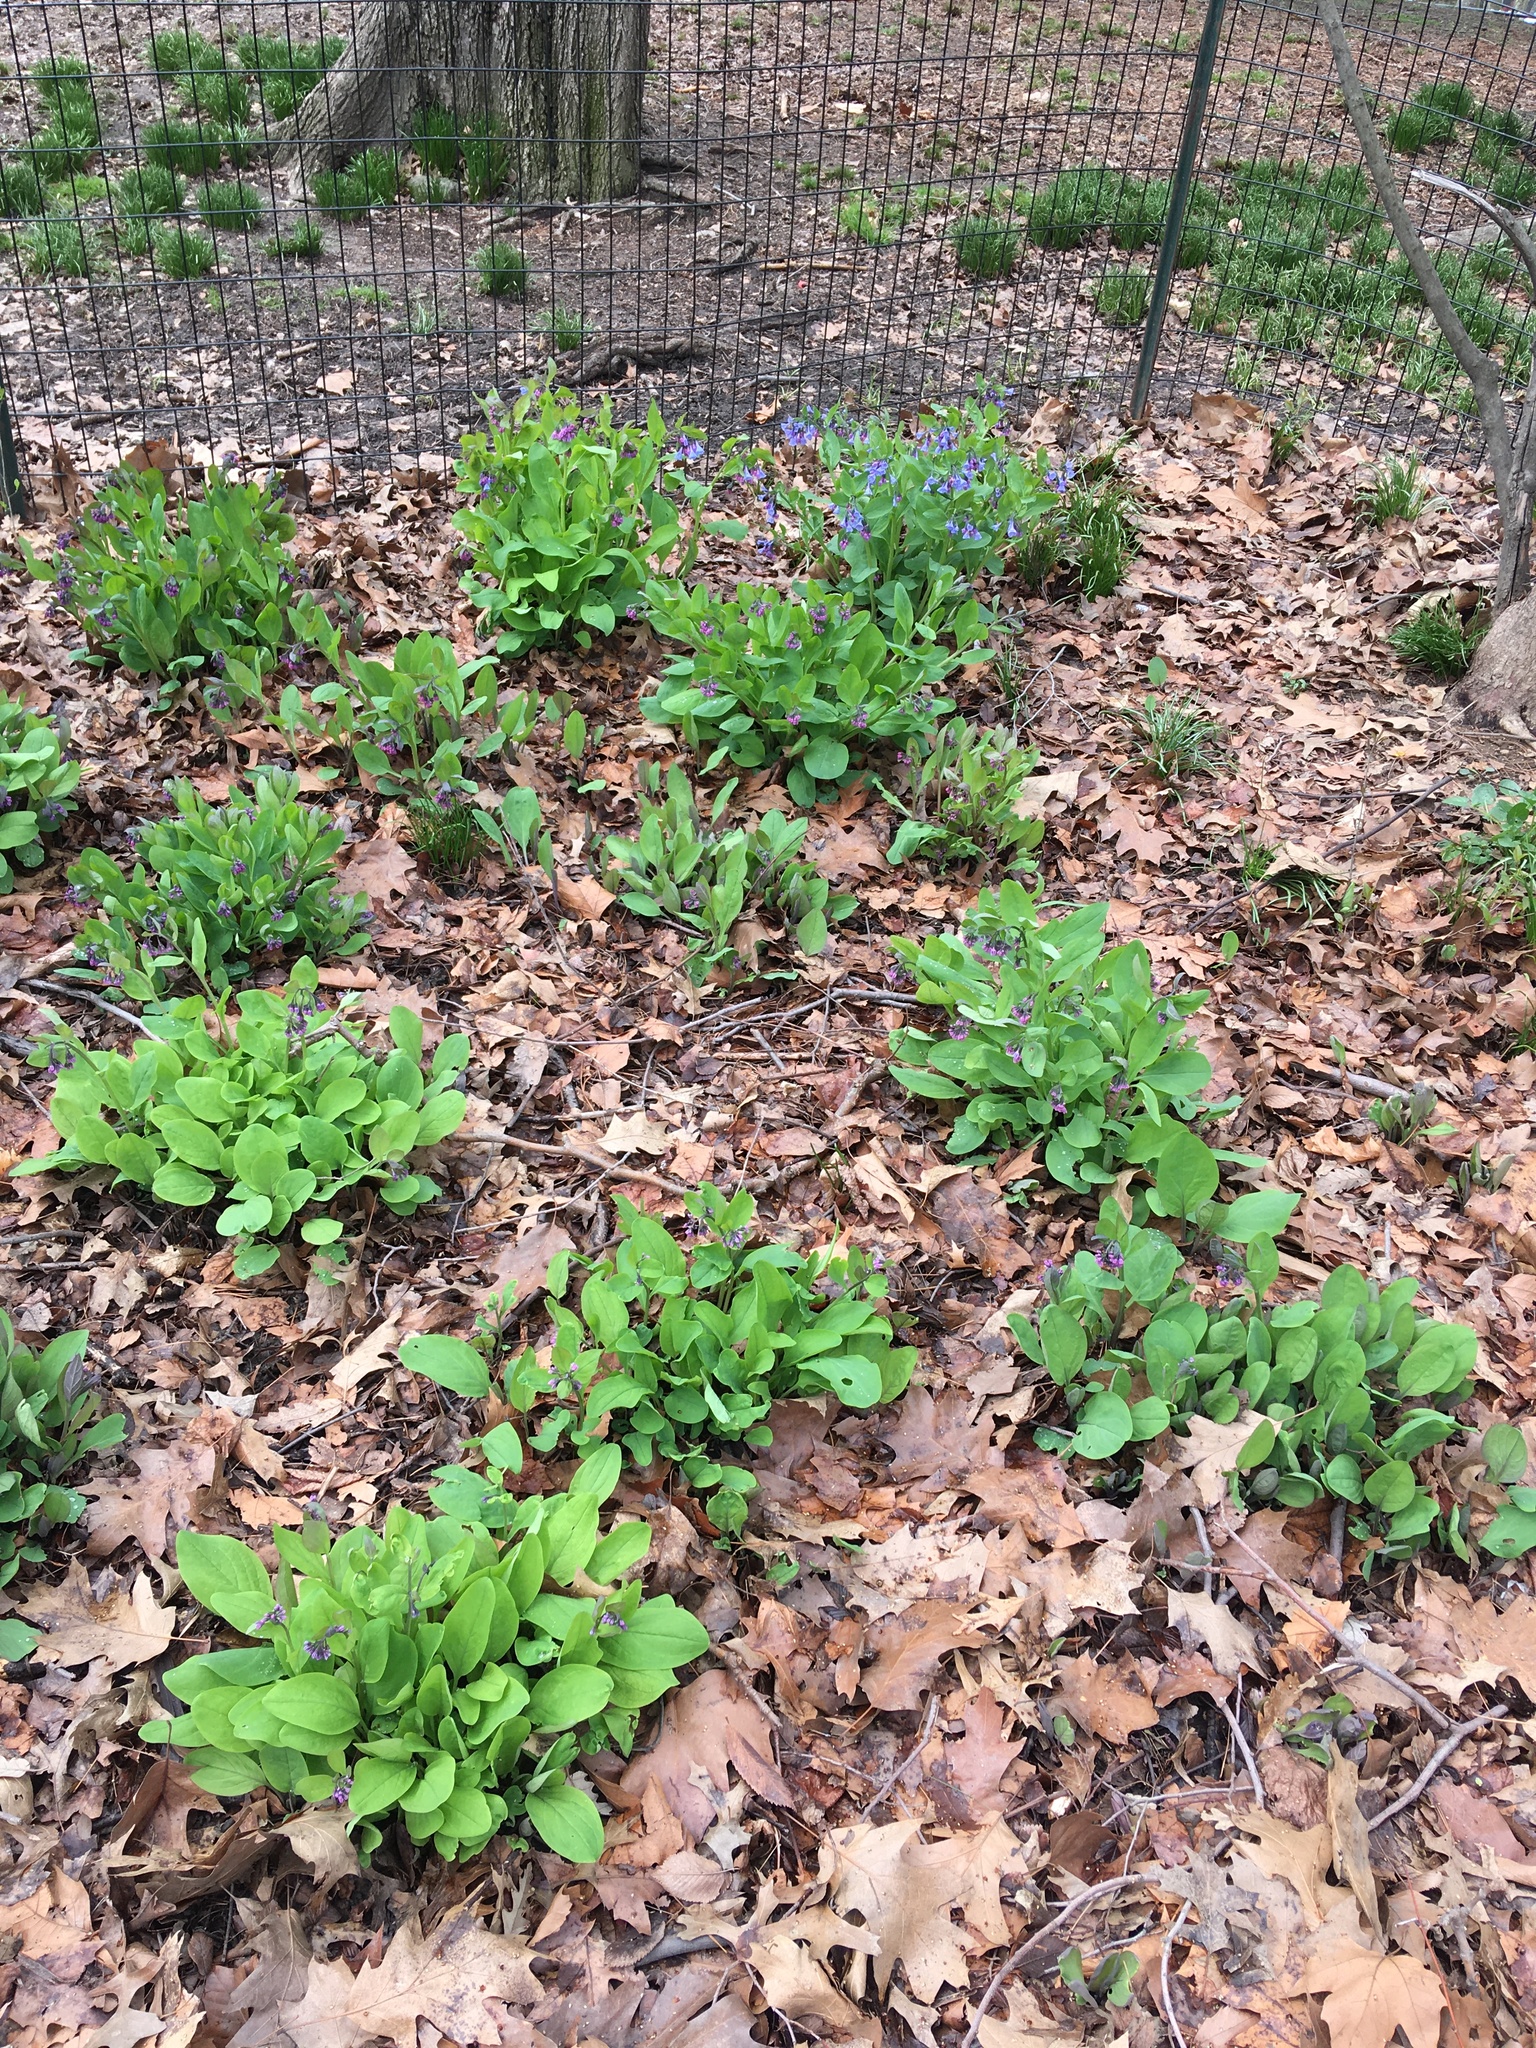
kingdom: Plantae
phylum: Tracheophyta
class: Magnoliopsida
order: Boraginales
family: Boraginaceae
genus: Mertensia
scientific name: Mertensia virginica
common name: Virginia bluebells
